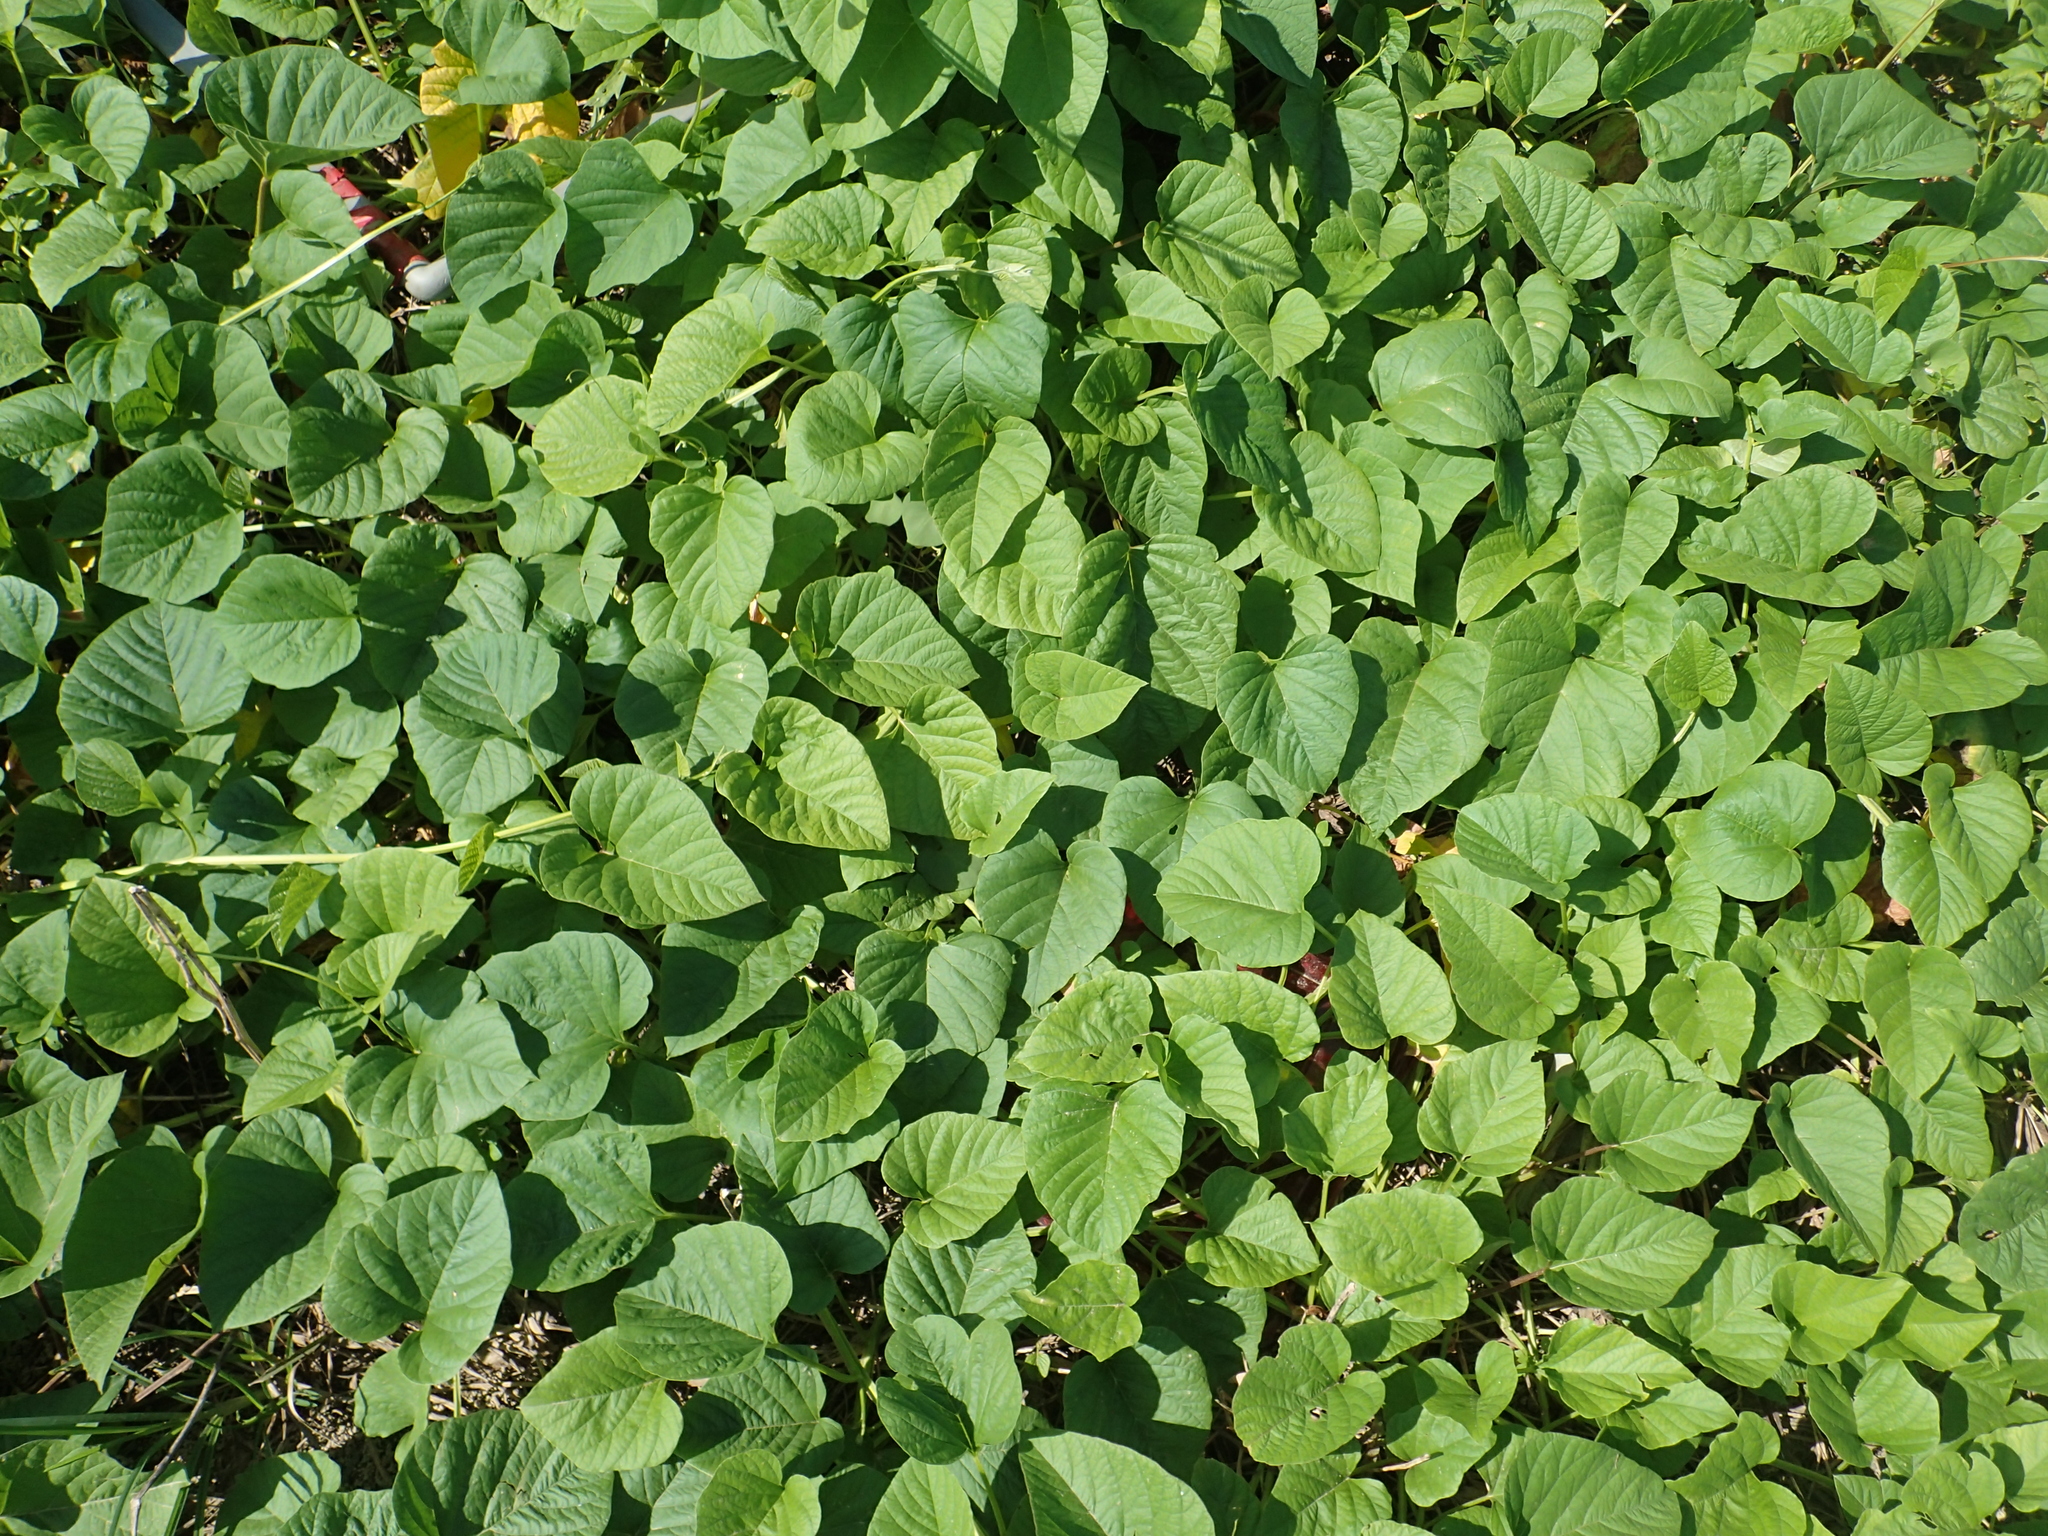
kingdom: Plantae
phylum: Tracheophyta
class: Magnoliopsida
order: Solanales
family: Convolvulaceae
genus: Operculina
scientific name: Operculina turpethum
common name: Transparent wood-rose
